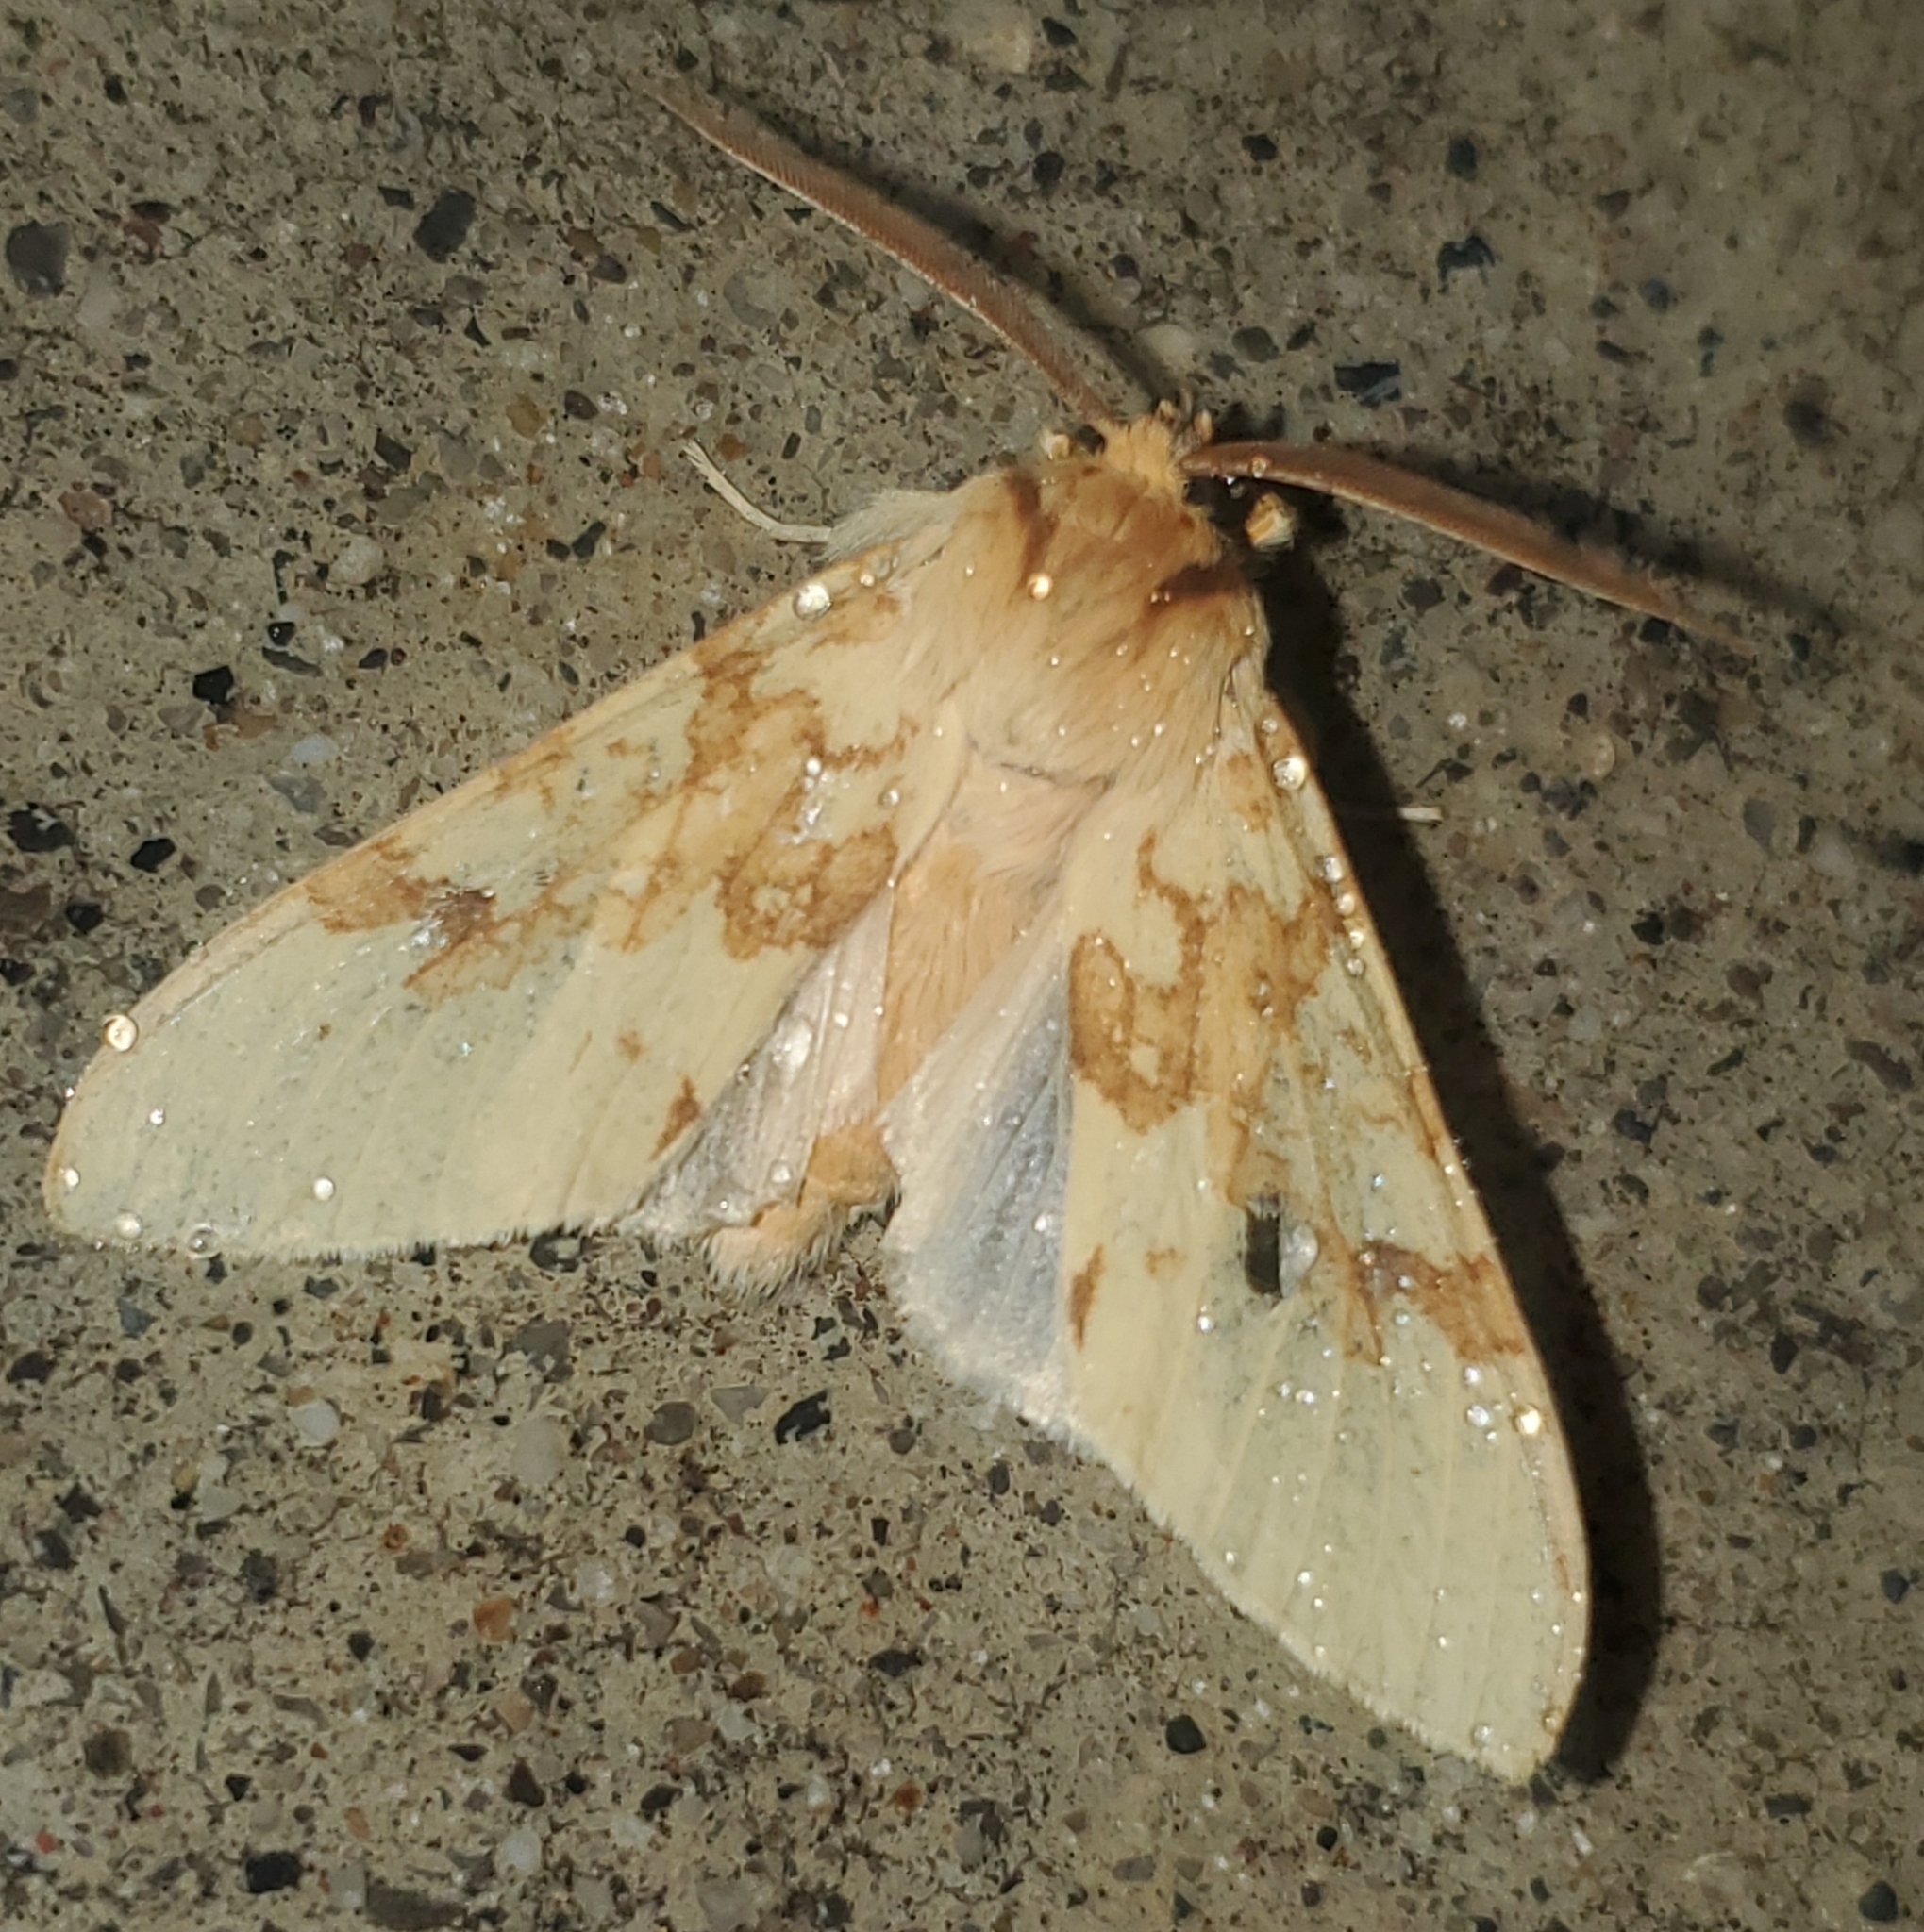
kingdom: Animalia
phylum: Arthropoda
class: Insecta
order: Lepidoptera
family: Erebidae
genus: Lophocampa
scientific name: Lophocampa maculata
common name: Spotted tussock moth
